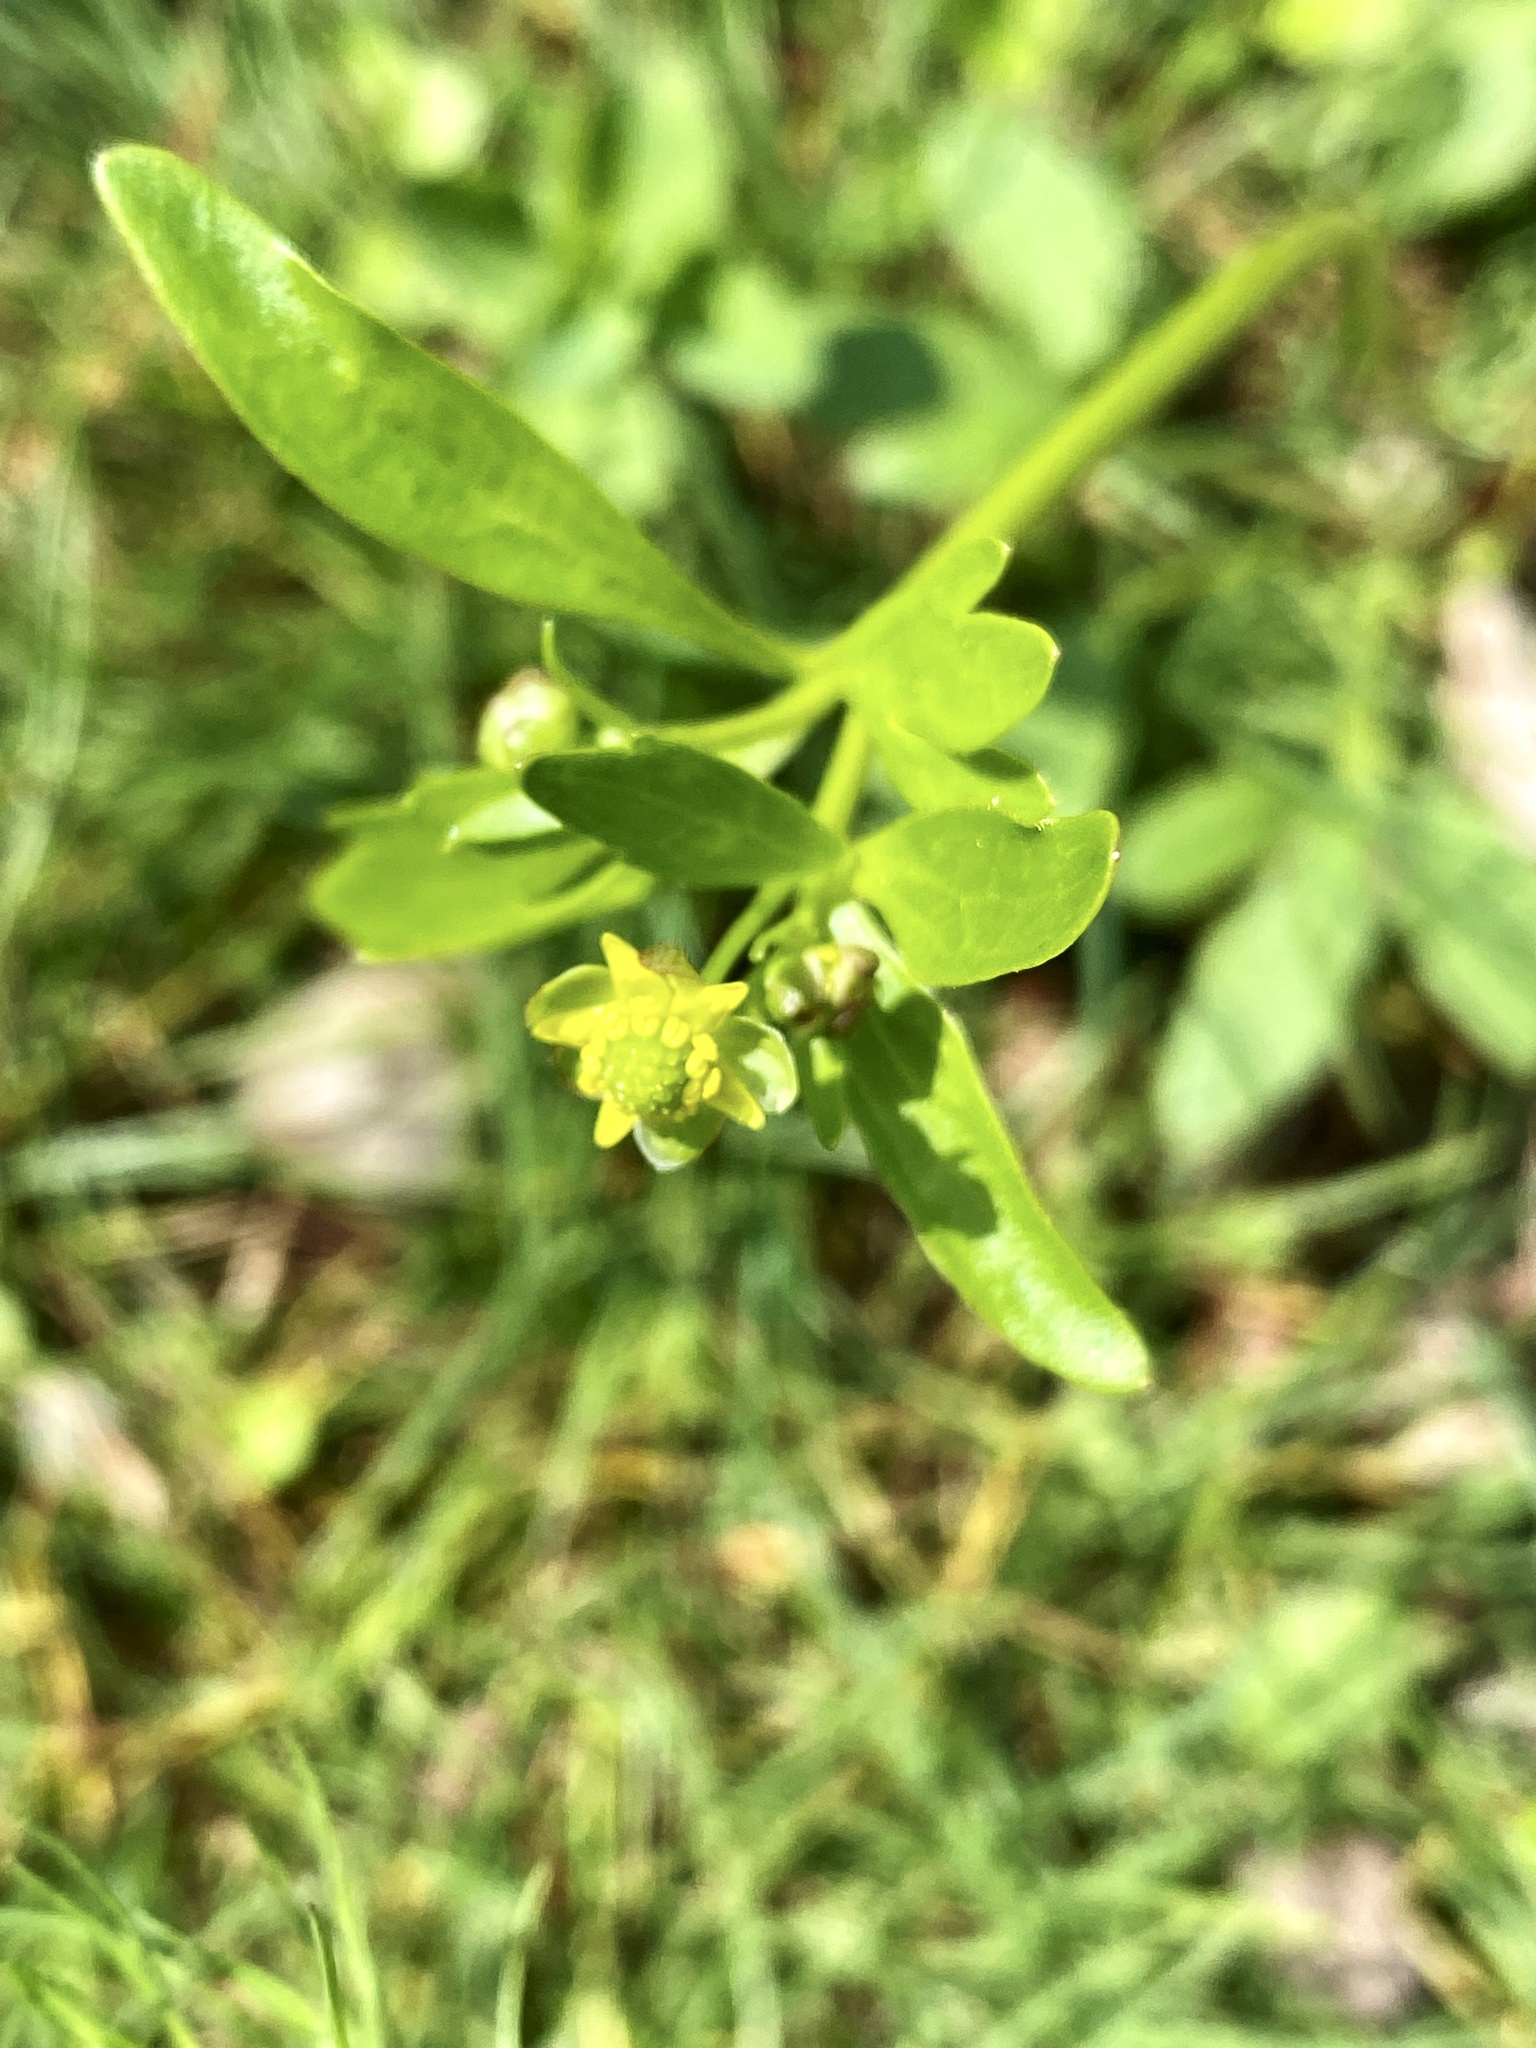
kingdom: Plantae
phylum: Tracheophyta
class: Magnoliopsida
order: Ranunculales
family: Ranunculaceae
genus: Ranunculus
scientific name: Ranunculus abortivus
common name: Early wood buttercup
